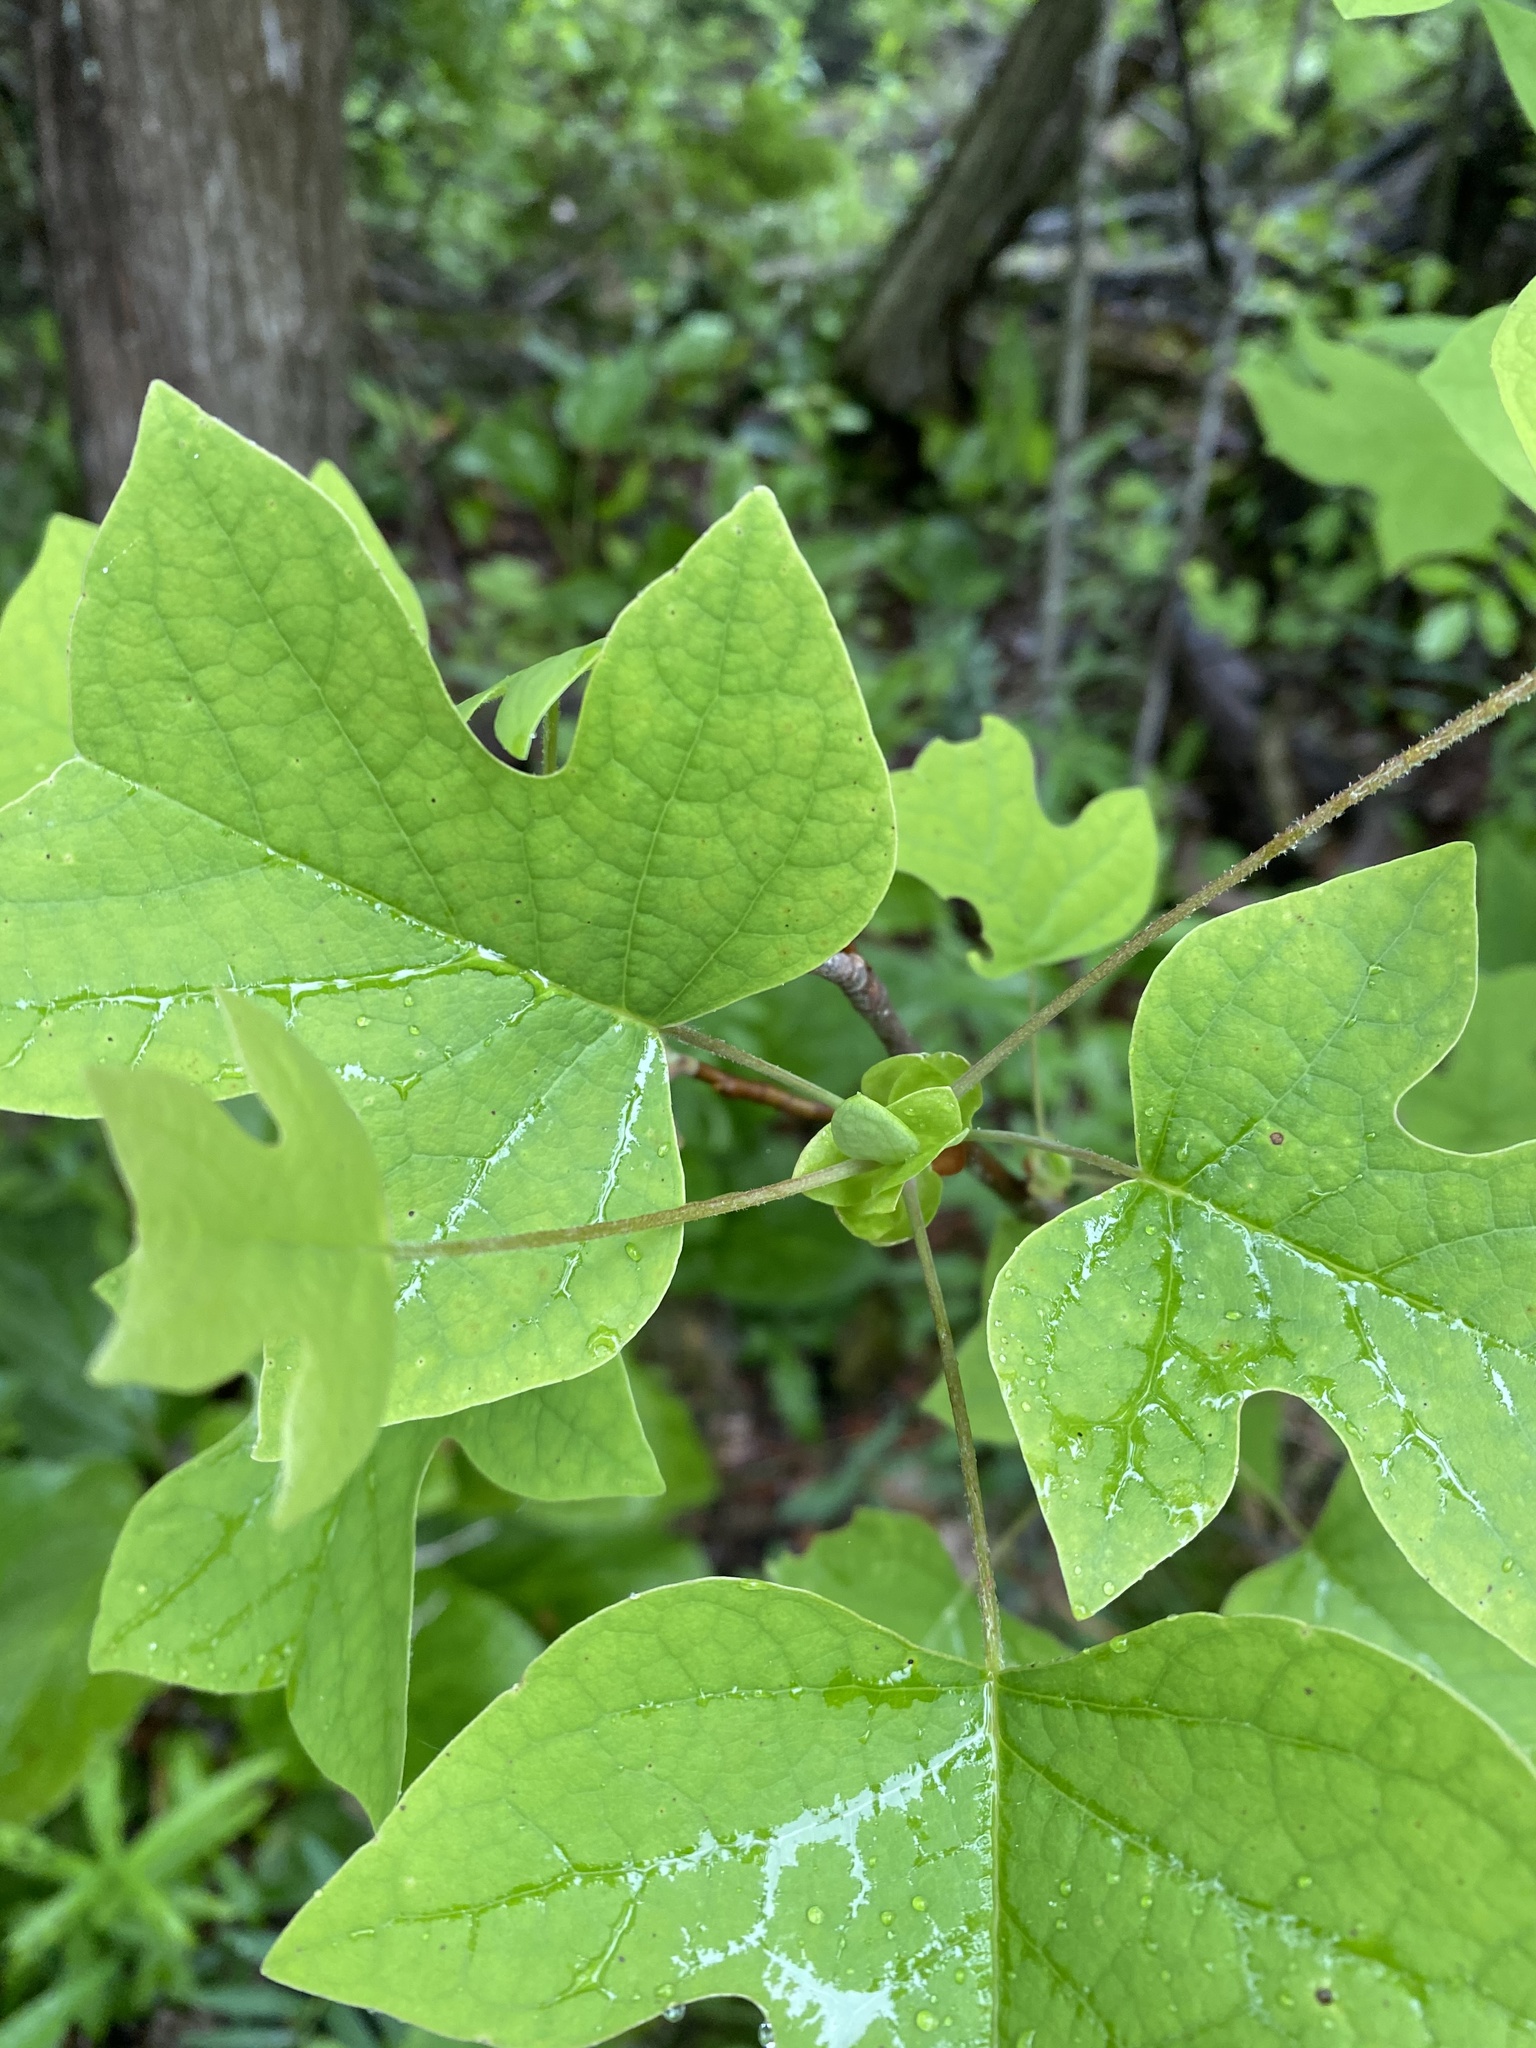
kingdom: Plantae
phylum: Tracheophyta
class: Magnoliopsida
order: Magnoliales
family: Magnoliaceae
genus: Liriodendron
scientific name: Liriodendron tulipifera
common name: Tulip tree
